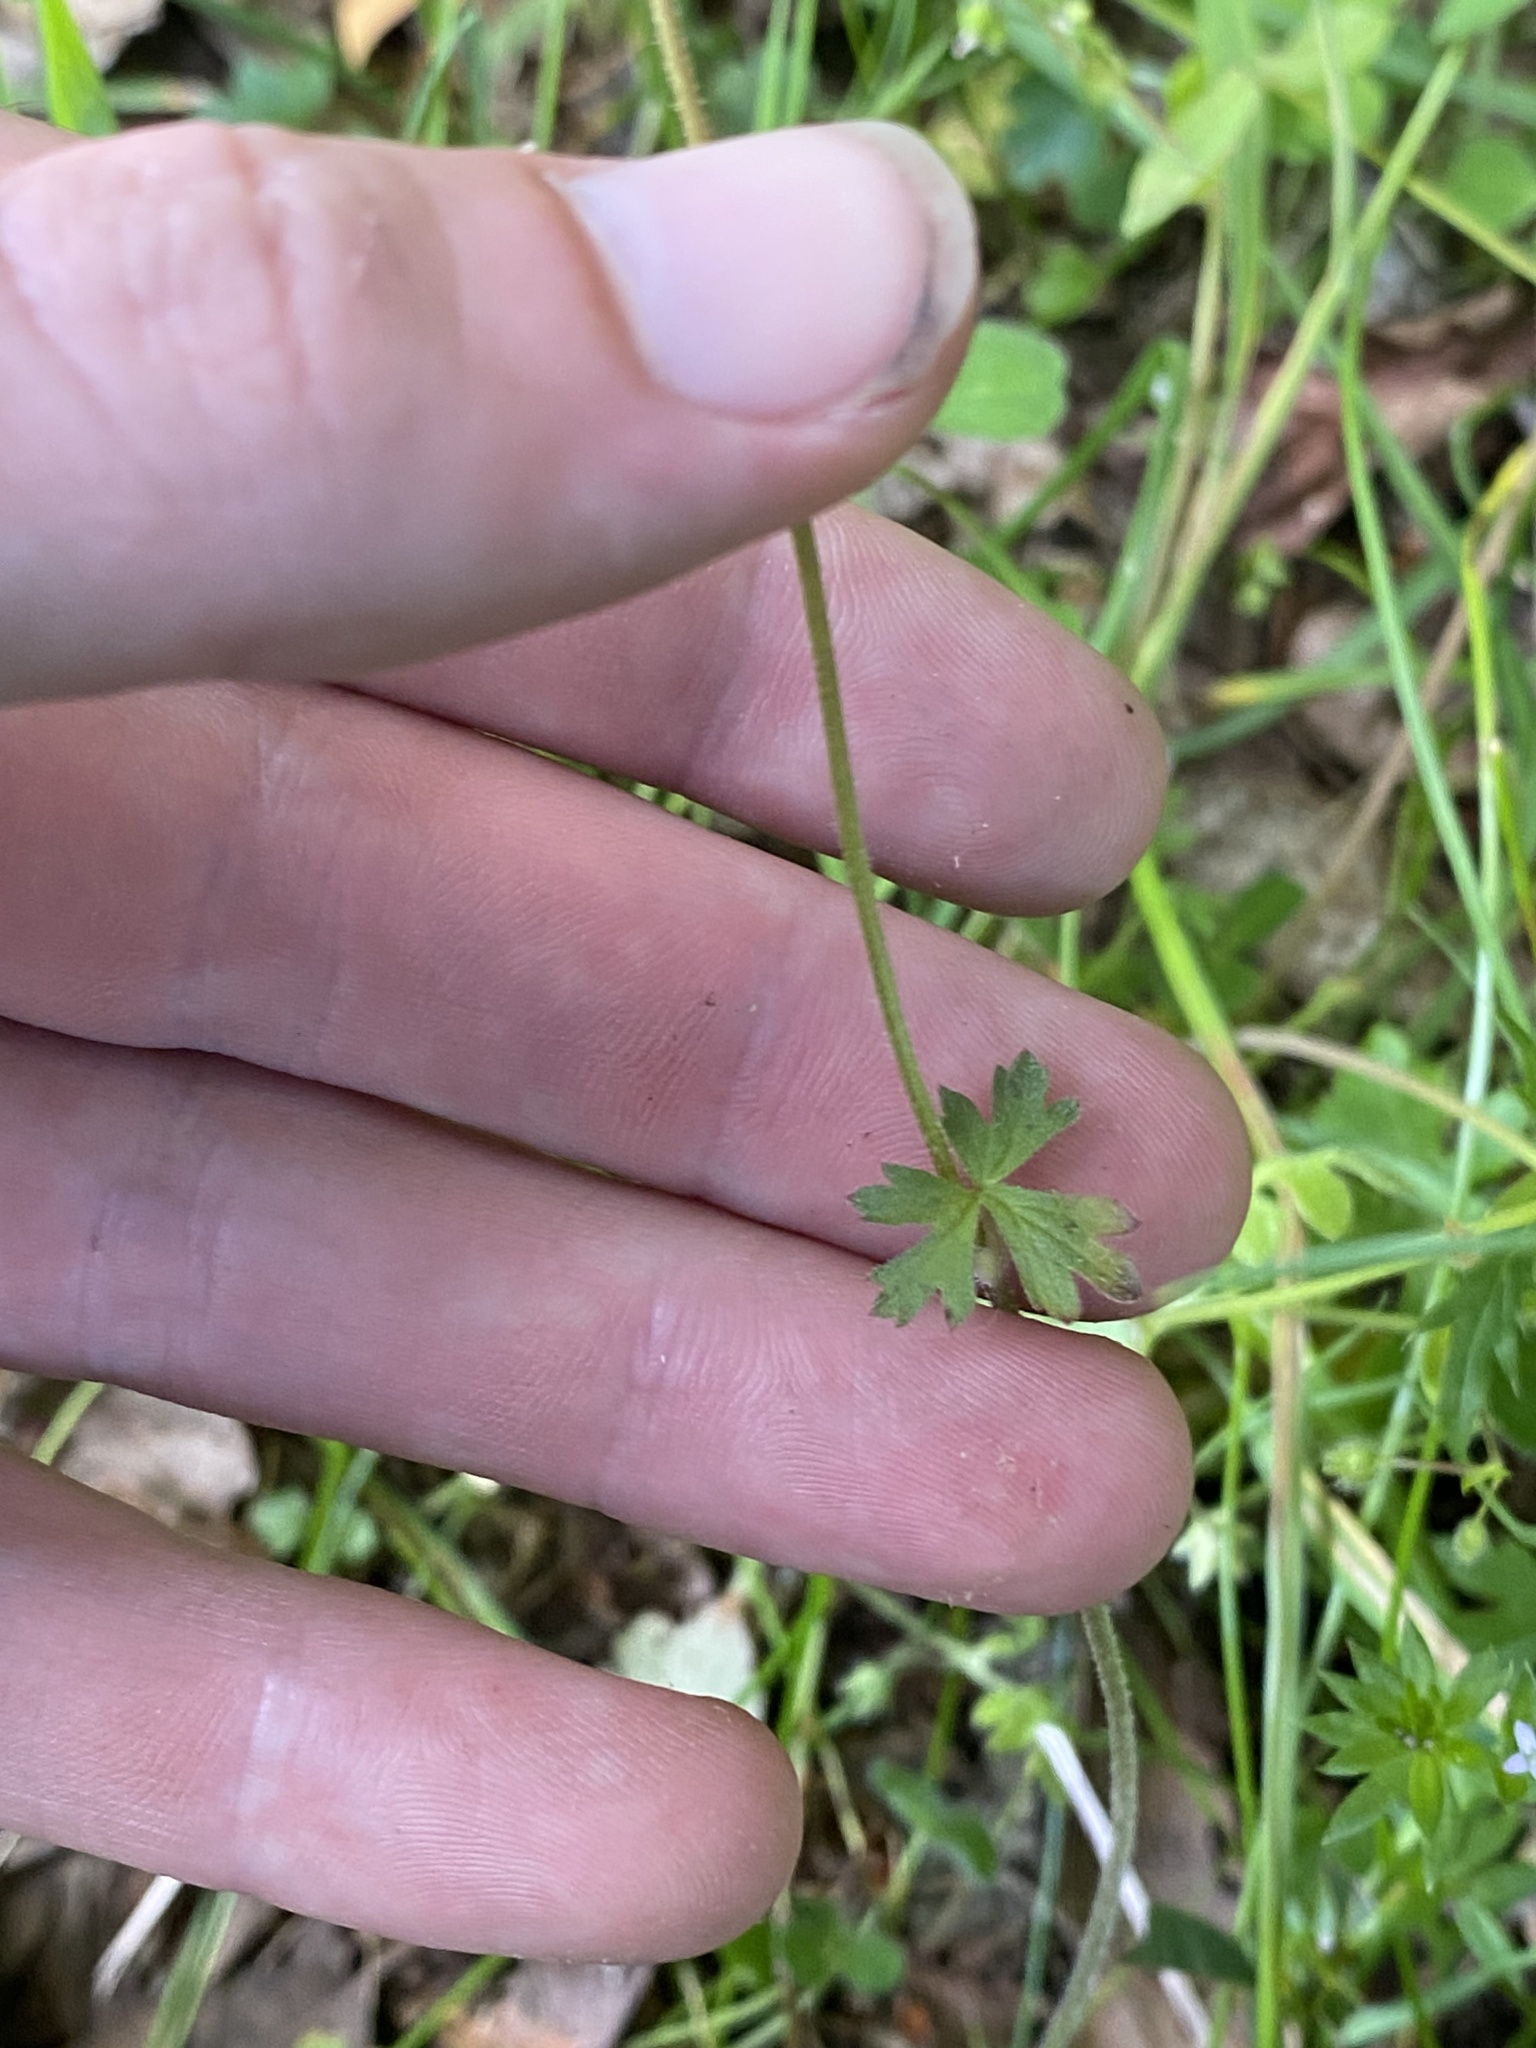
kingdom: Plantae
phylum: Tracheophyta
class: Magnoliopsida
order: Saxifragales
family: Saxifragaceae
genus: Lithophragma
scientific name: Lithophragma affine
